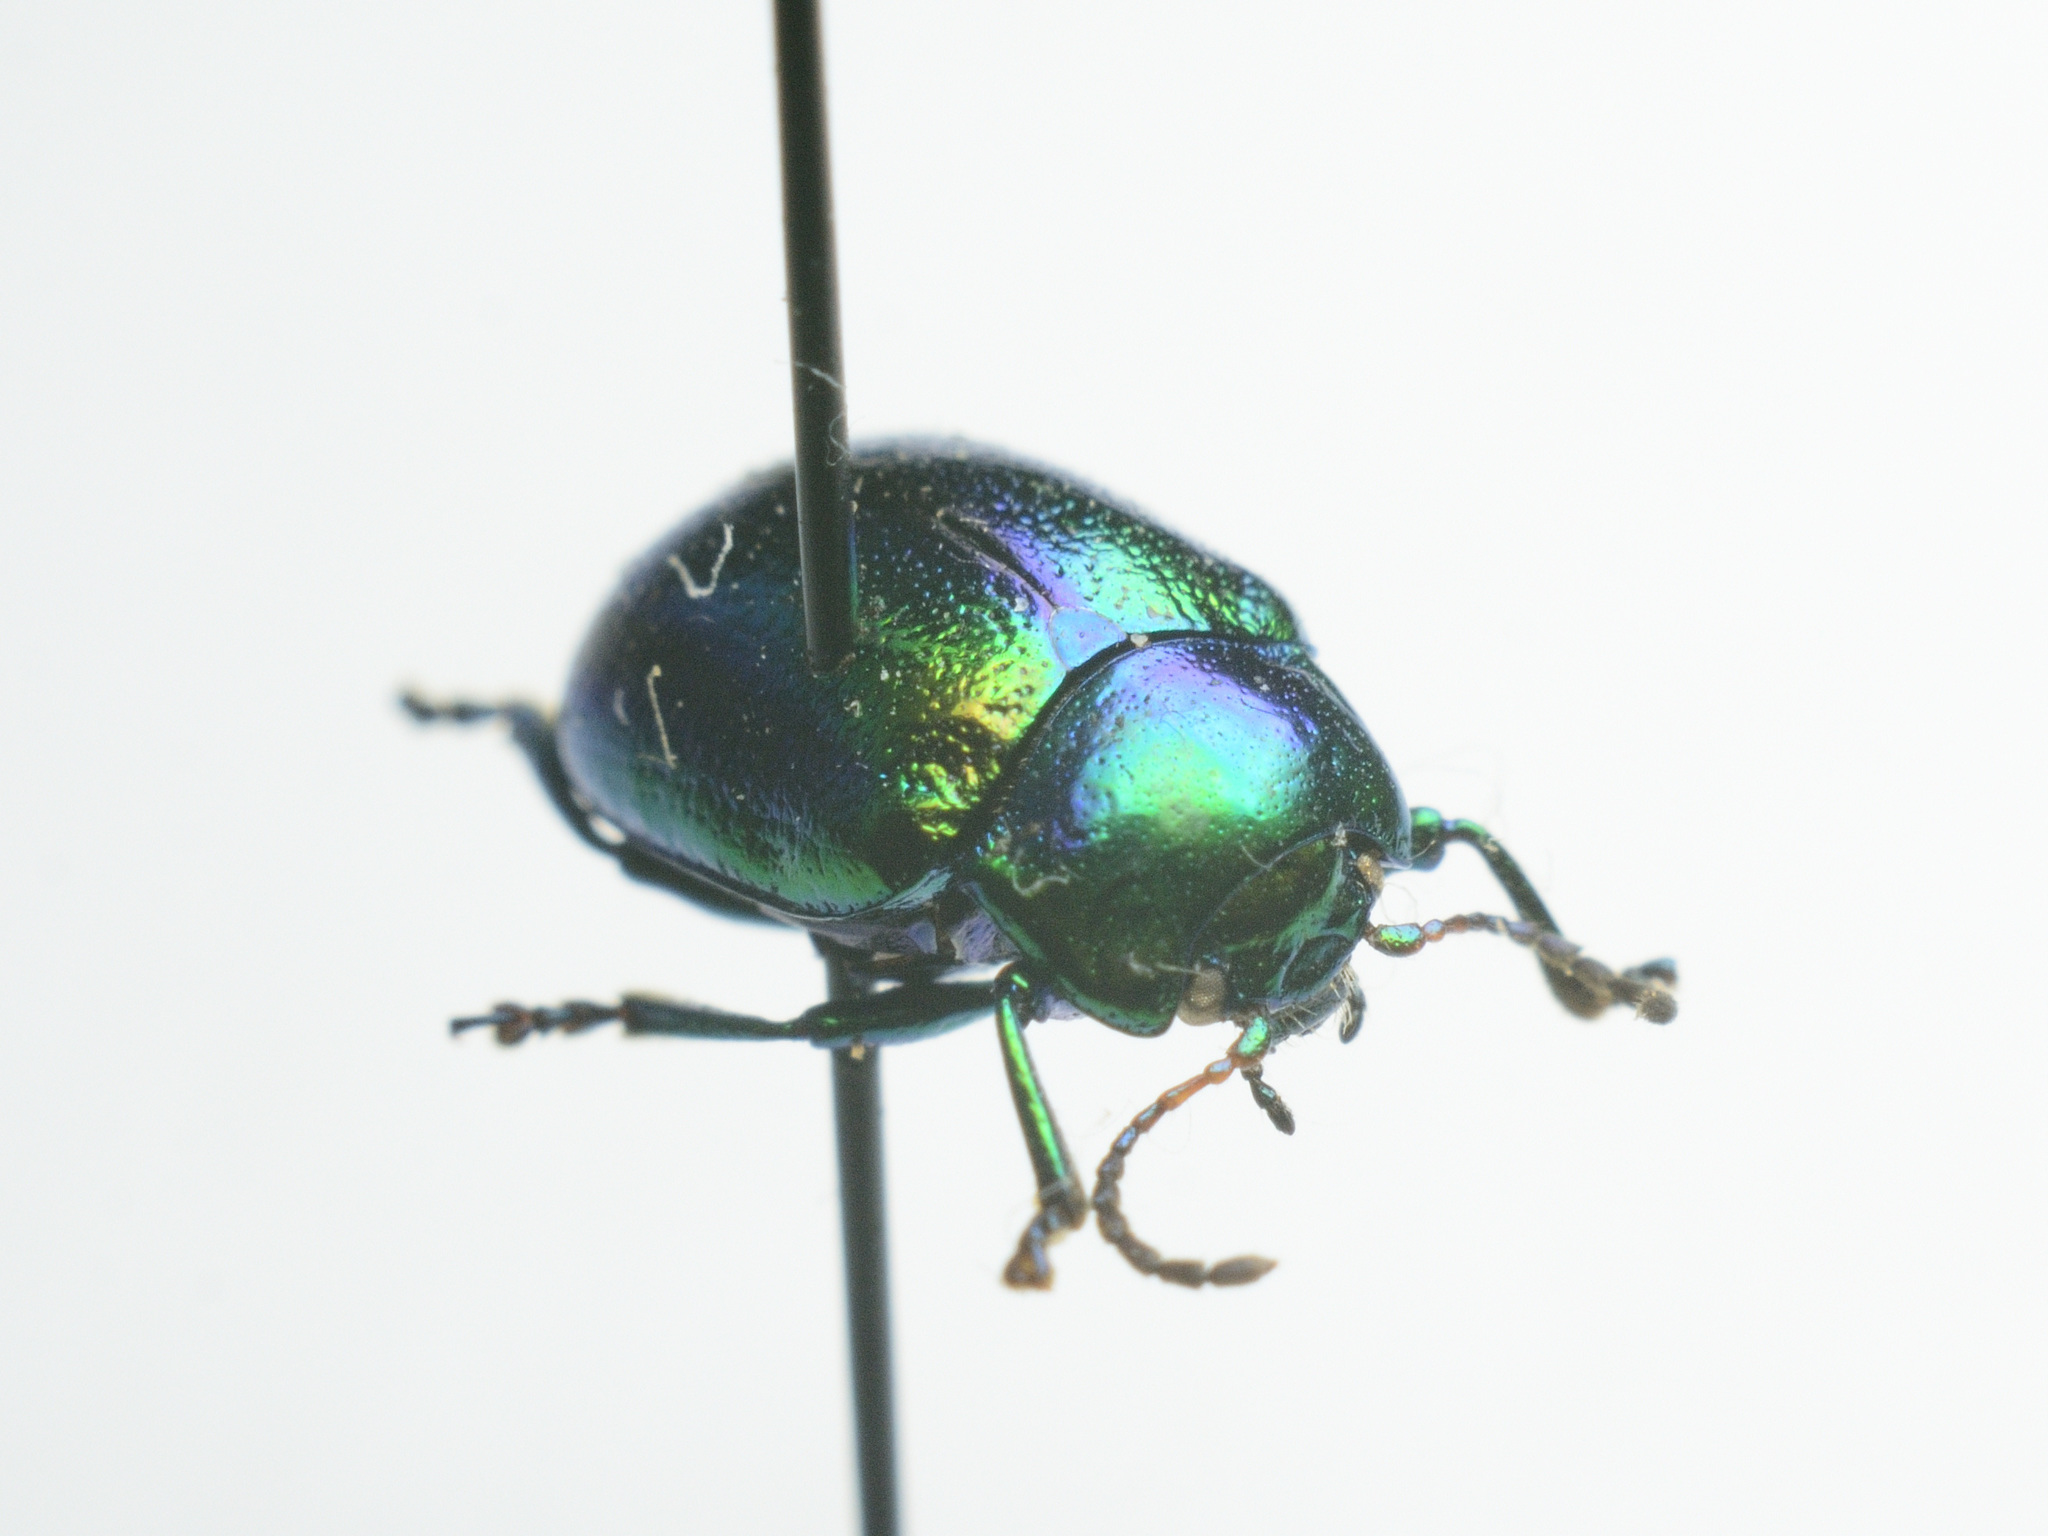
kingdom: Animalia
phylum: Arthropoda
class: Insecta
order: Coleoptera
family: Chrysomelidae
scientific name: Chrysomelidae
